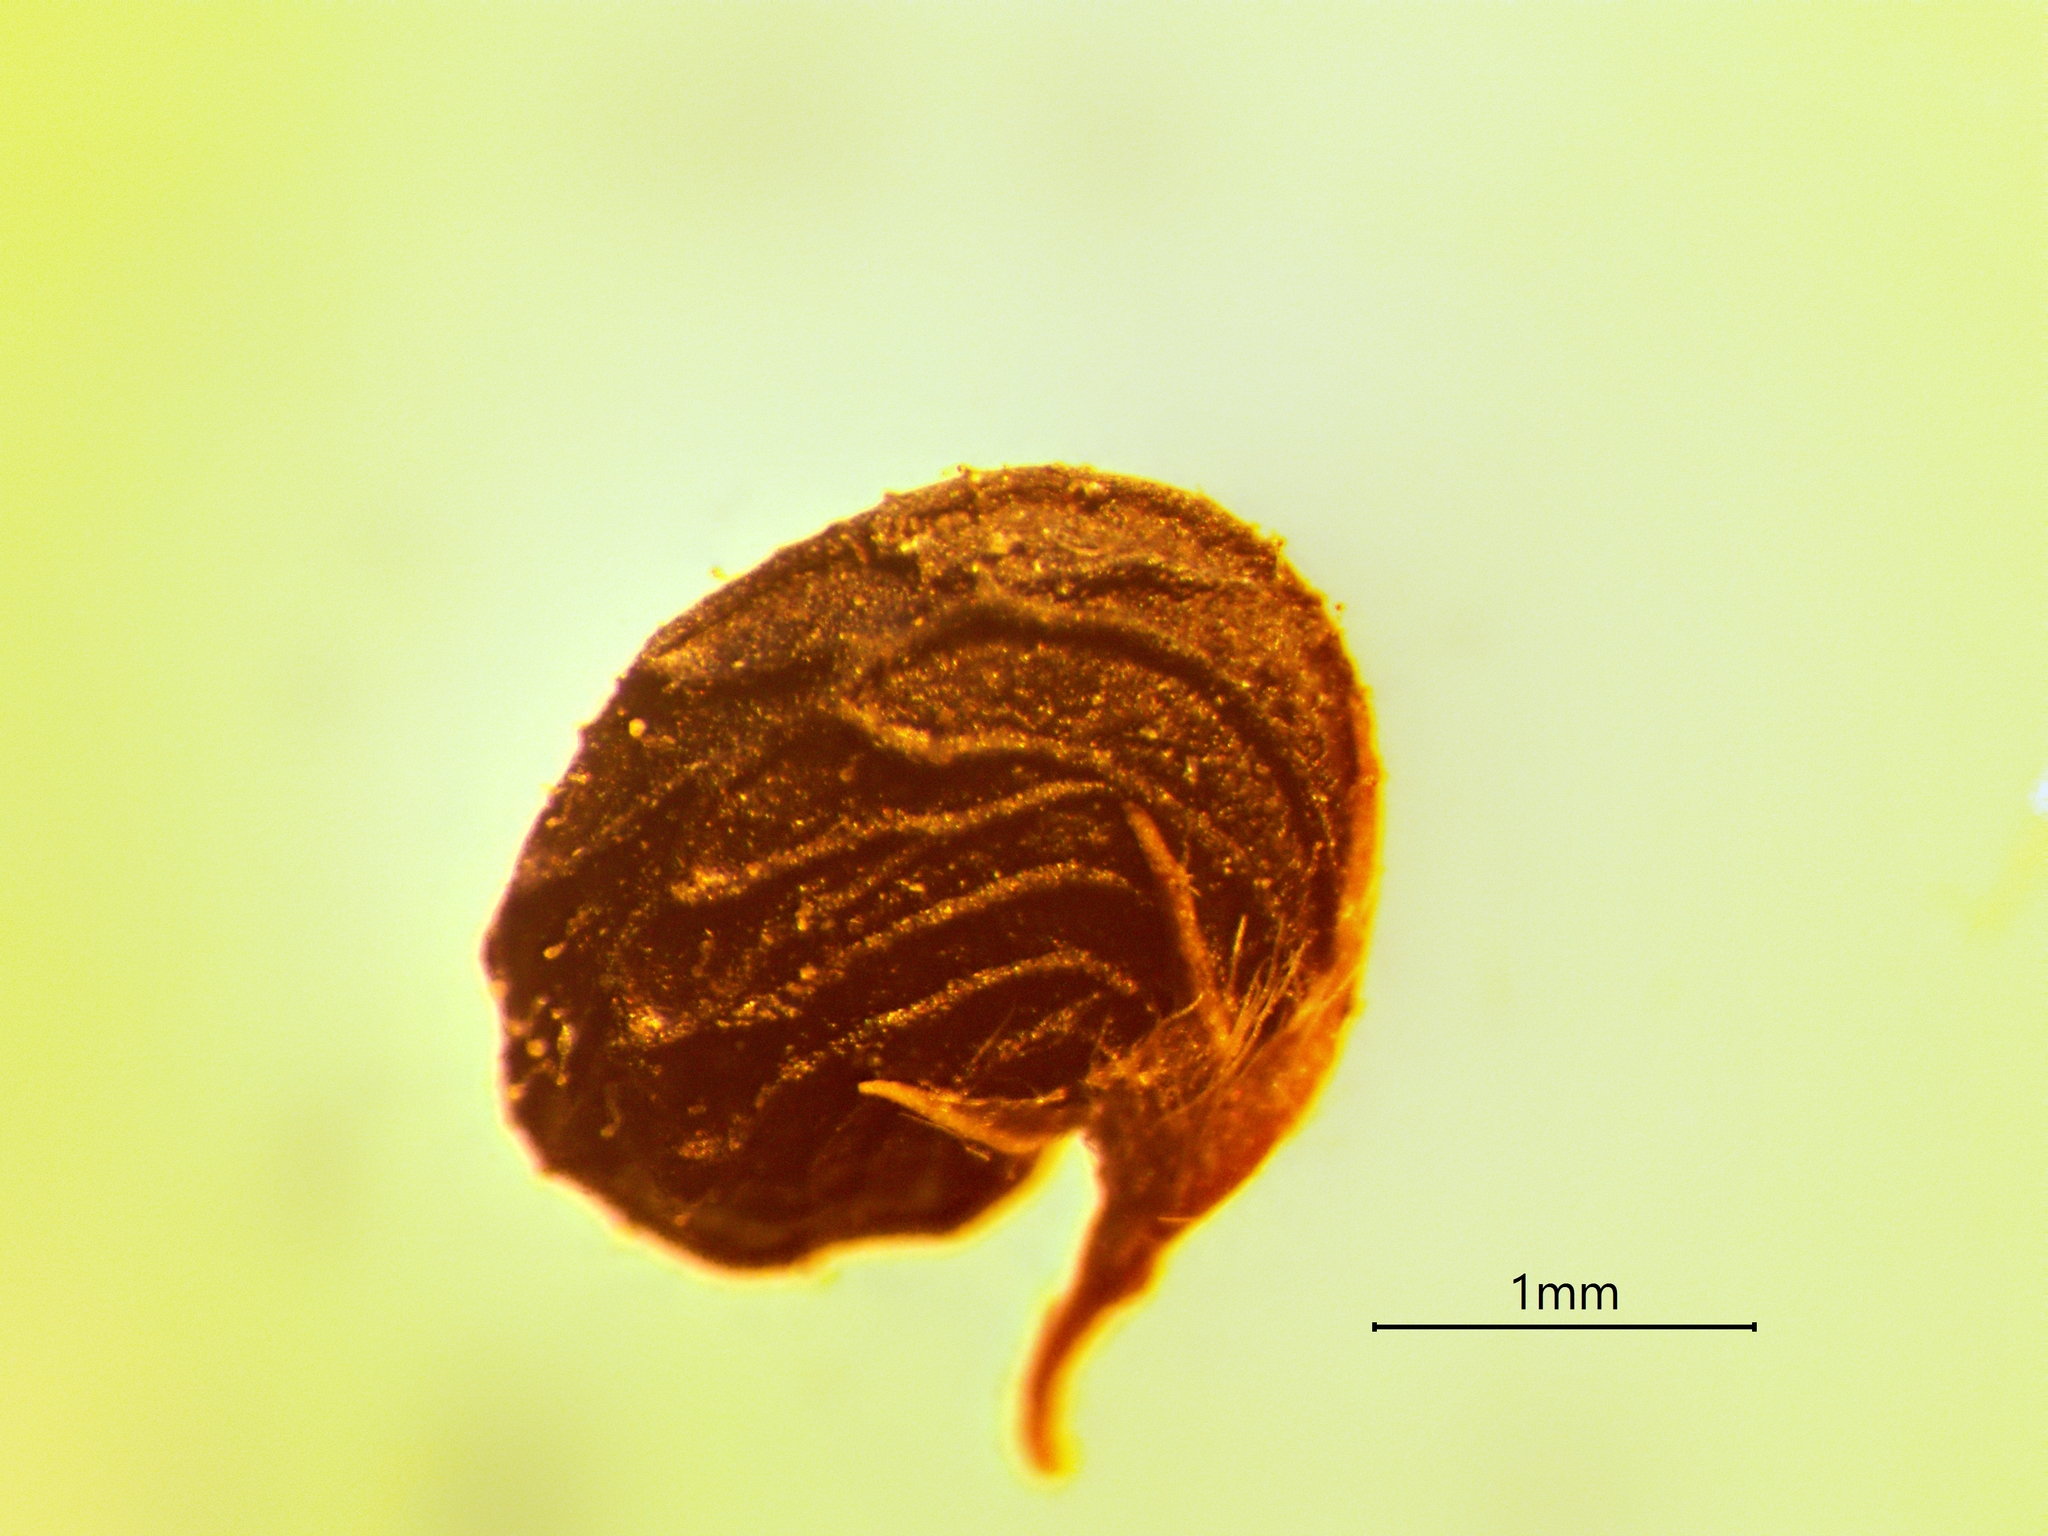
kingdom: Plantae
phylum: Tracheophyta
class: Magnoliopsida
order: Fabales
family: Fabaceae
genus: Medicago
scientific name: Medicago lupulina
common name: Black medick
